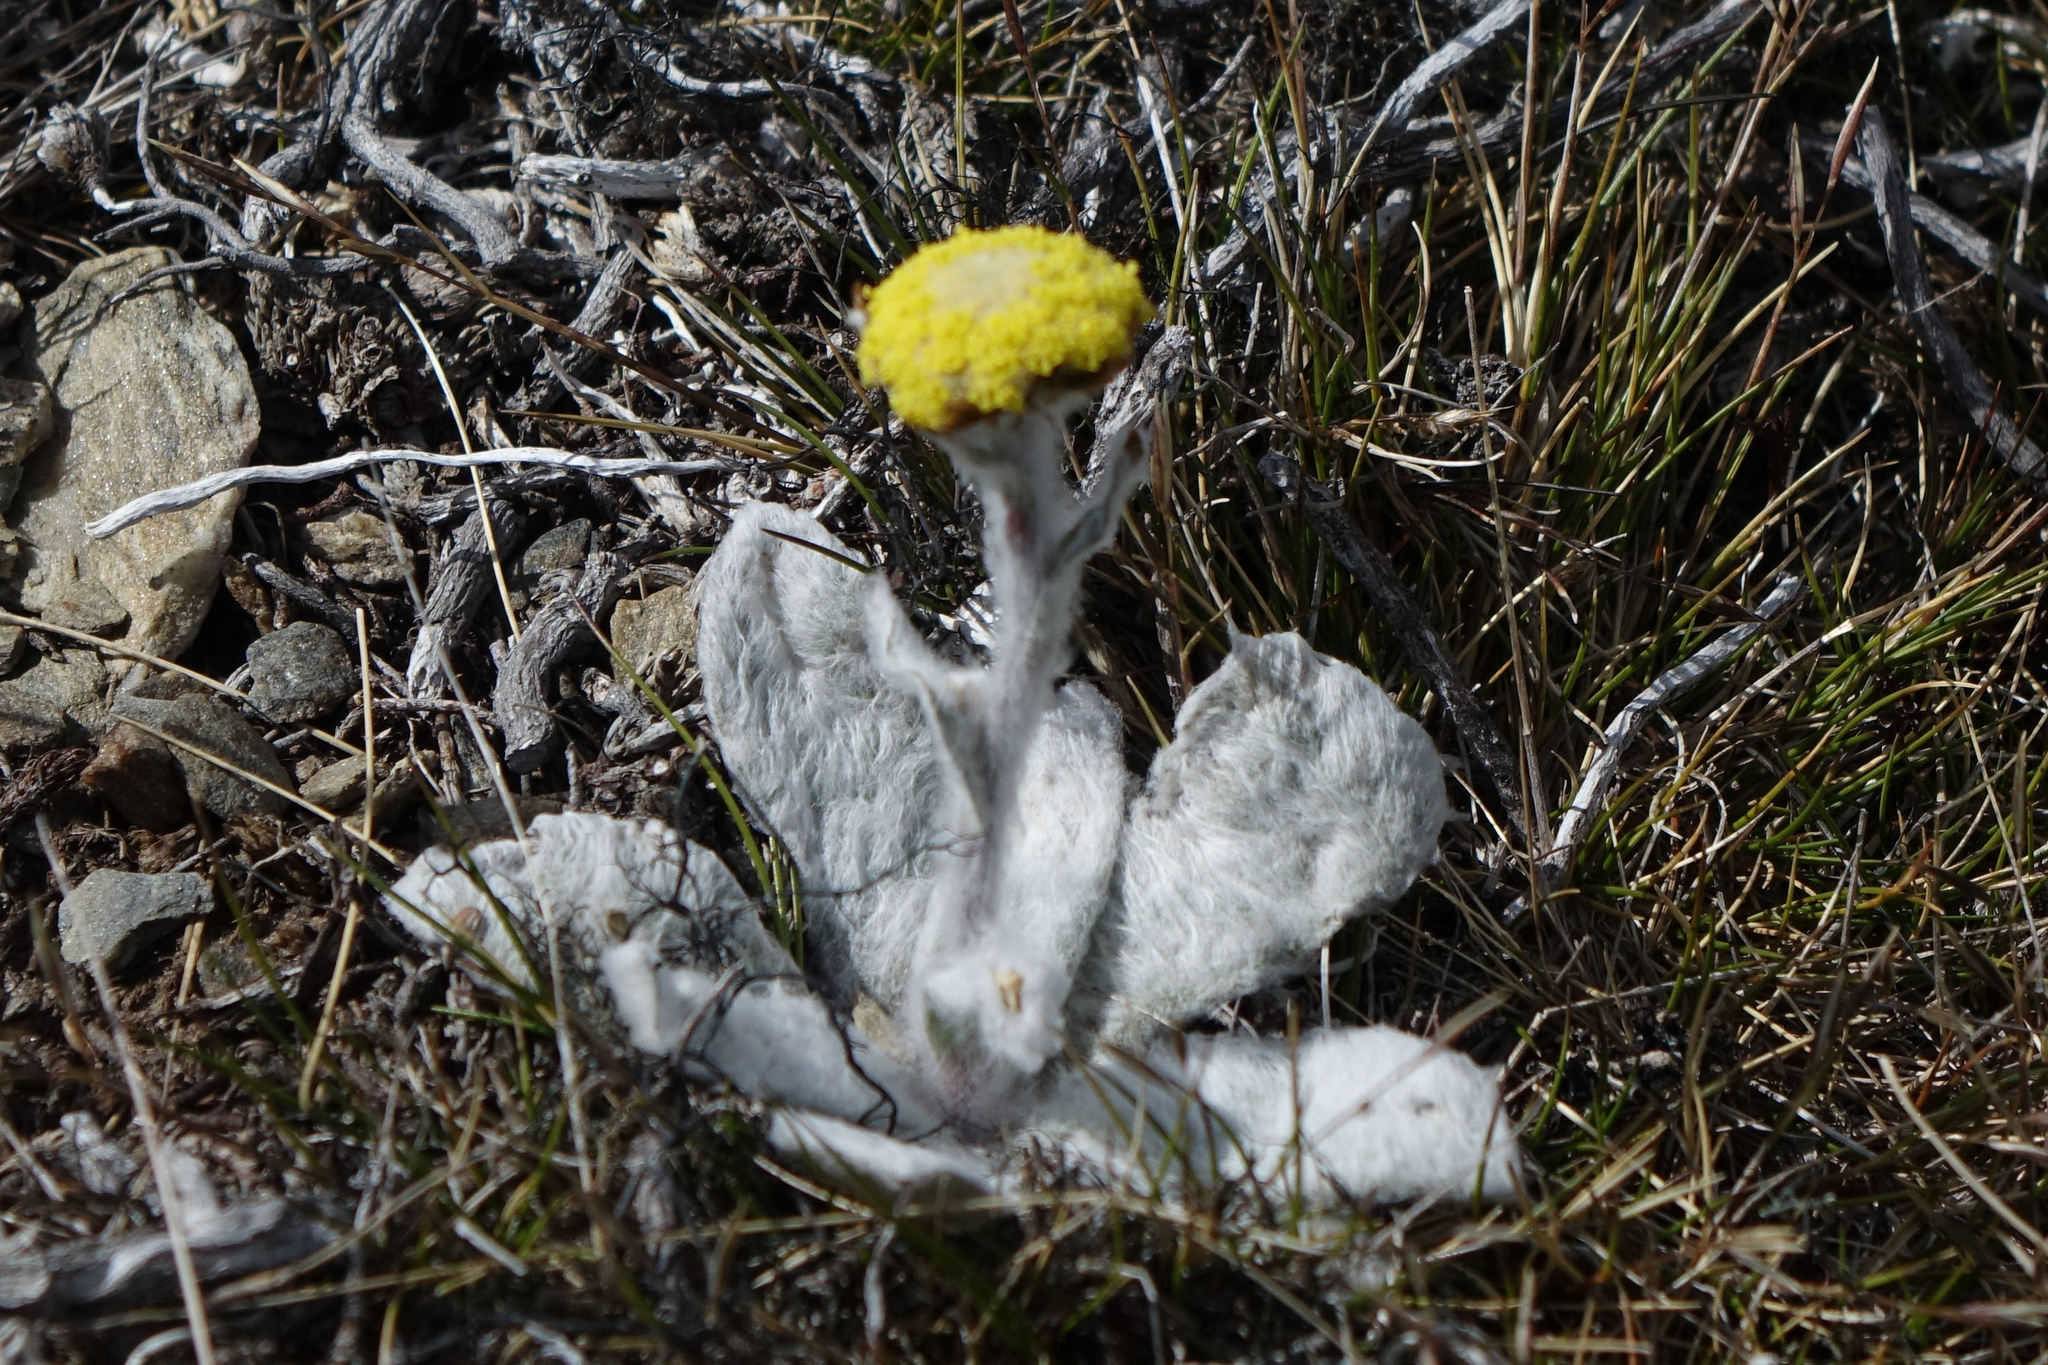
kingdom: Plantae
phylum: Tracheophyta
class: Magnoliopsida
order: Asterales
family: Asteraceae
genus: Craspedia
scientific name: Craspedia incana
